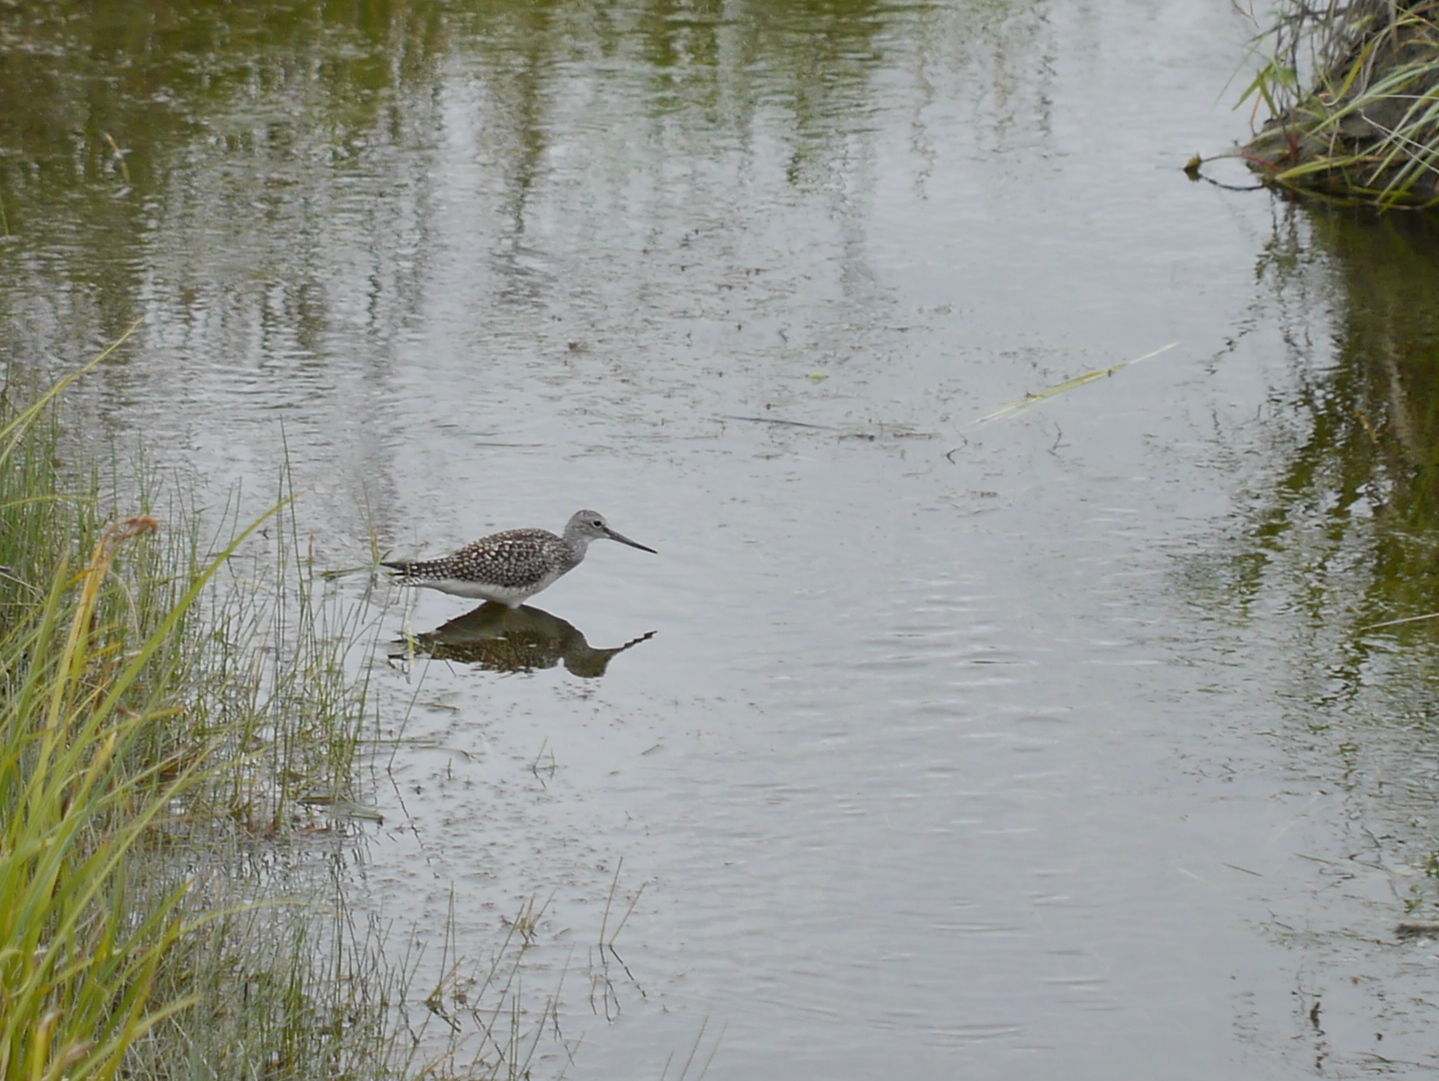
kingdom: Animalia
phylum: Chordata
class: Aves
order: Charadriiformes
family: Scolopacidae
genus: Tringa
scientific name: Tringa melanoleuca
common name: Greater yellowlegs
